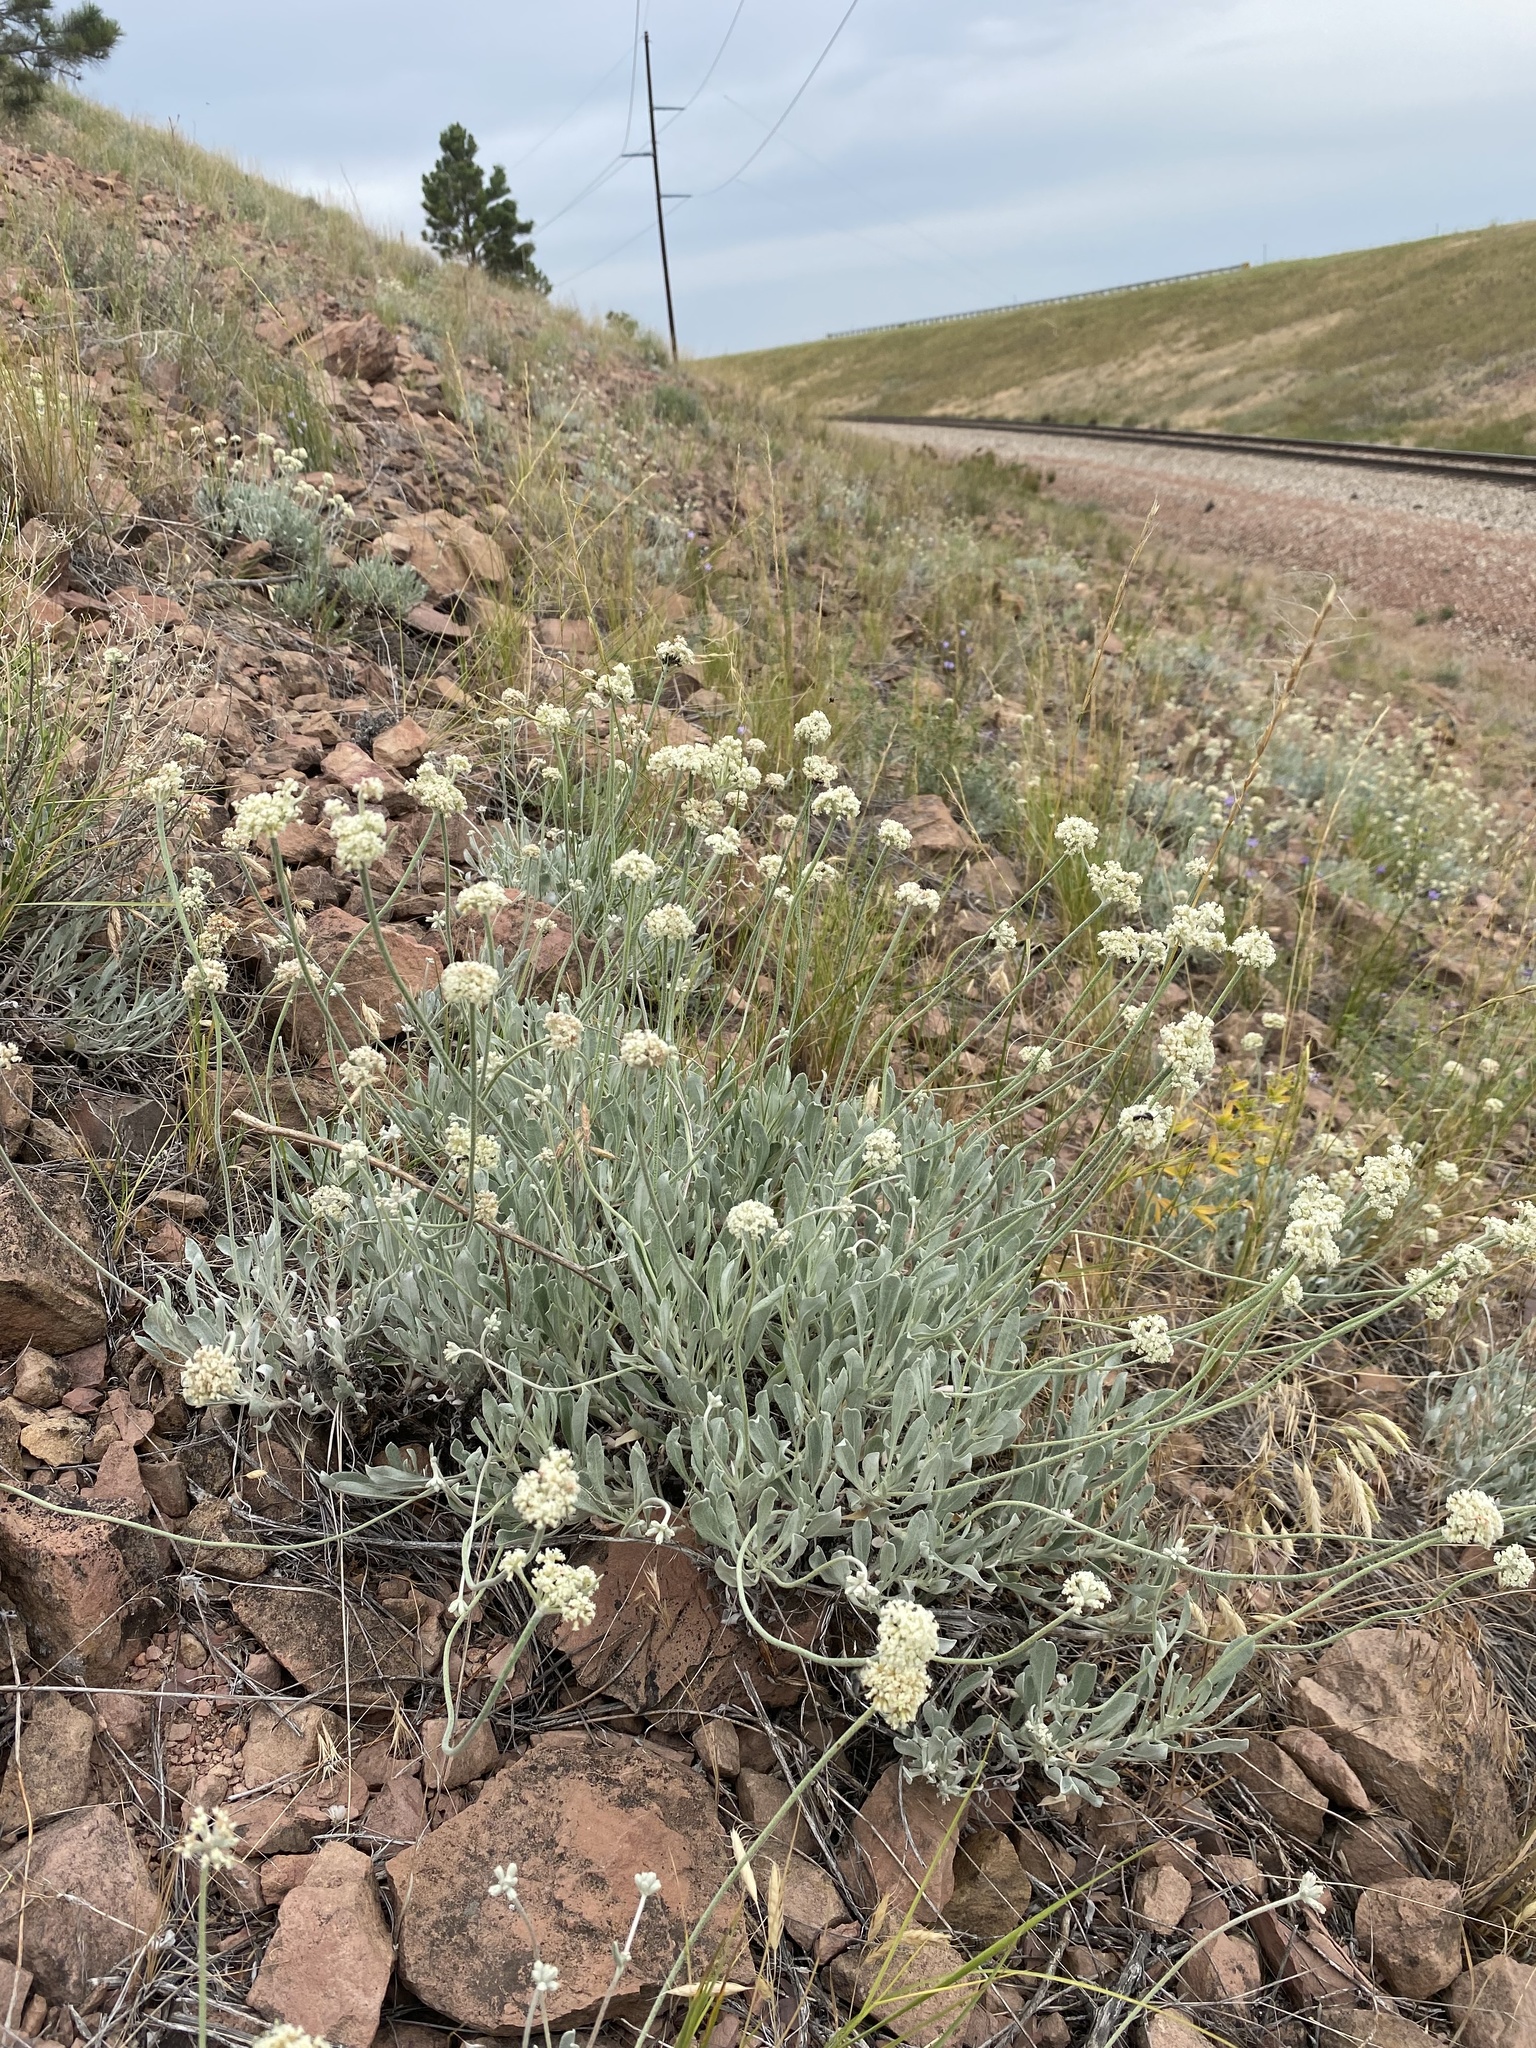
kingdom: Plantae
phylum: Tracheophyta
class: Magnoliopsida
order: Caryophyllales
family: Polygonaceae
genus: Eriogonum
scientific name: Eriogonum pauciflorum
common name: Few-flower wild buckwheat
